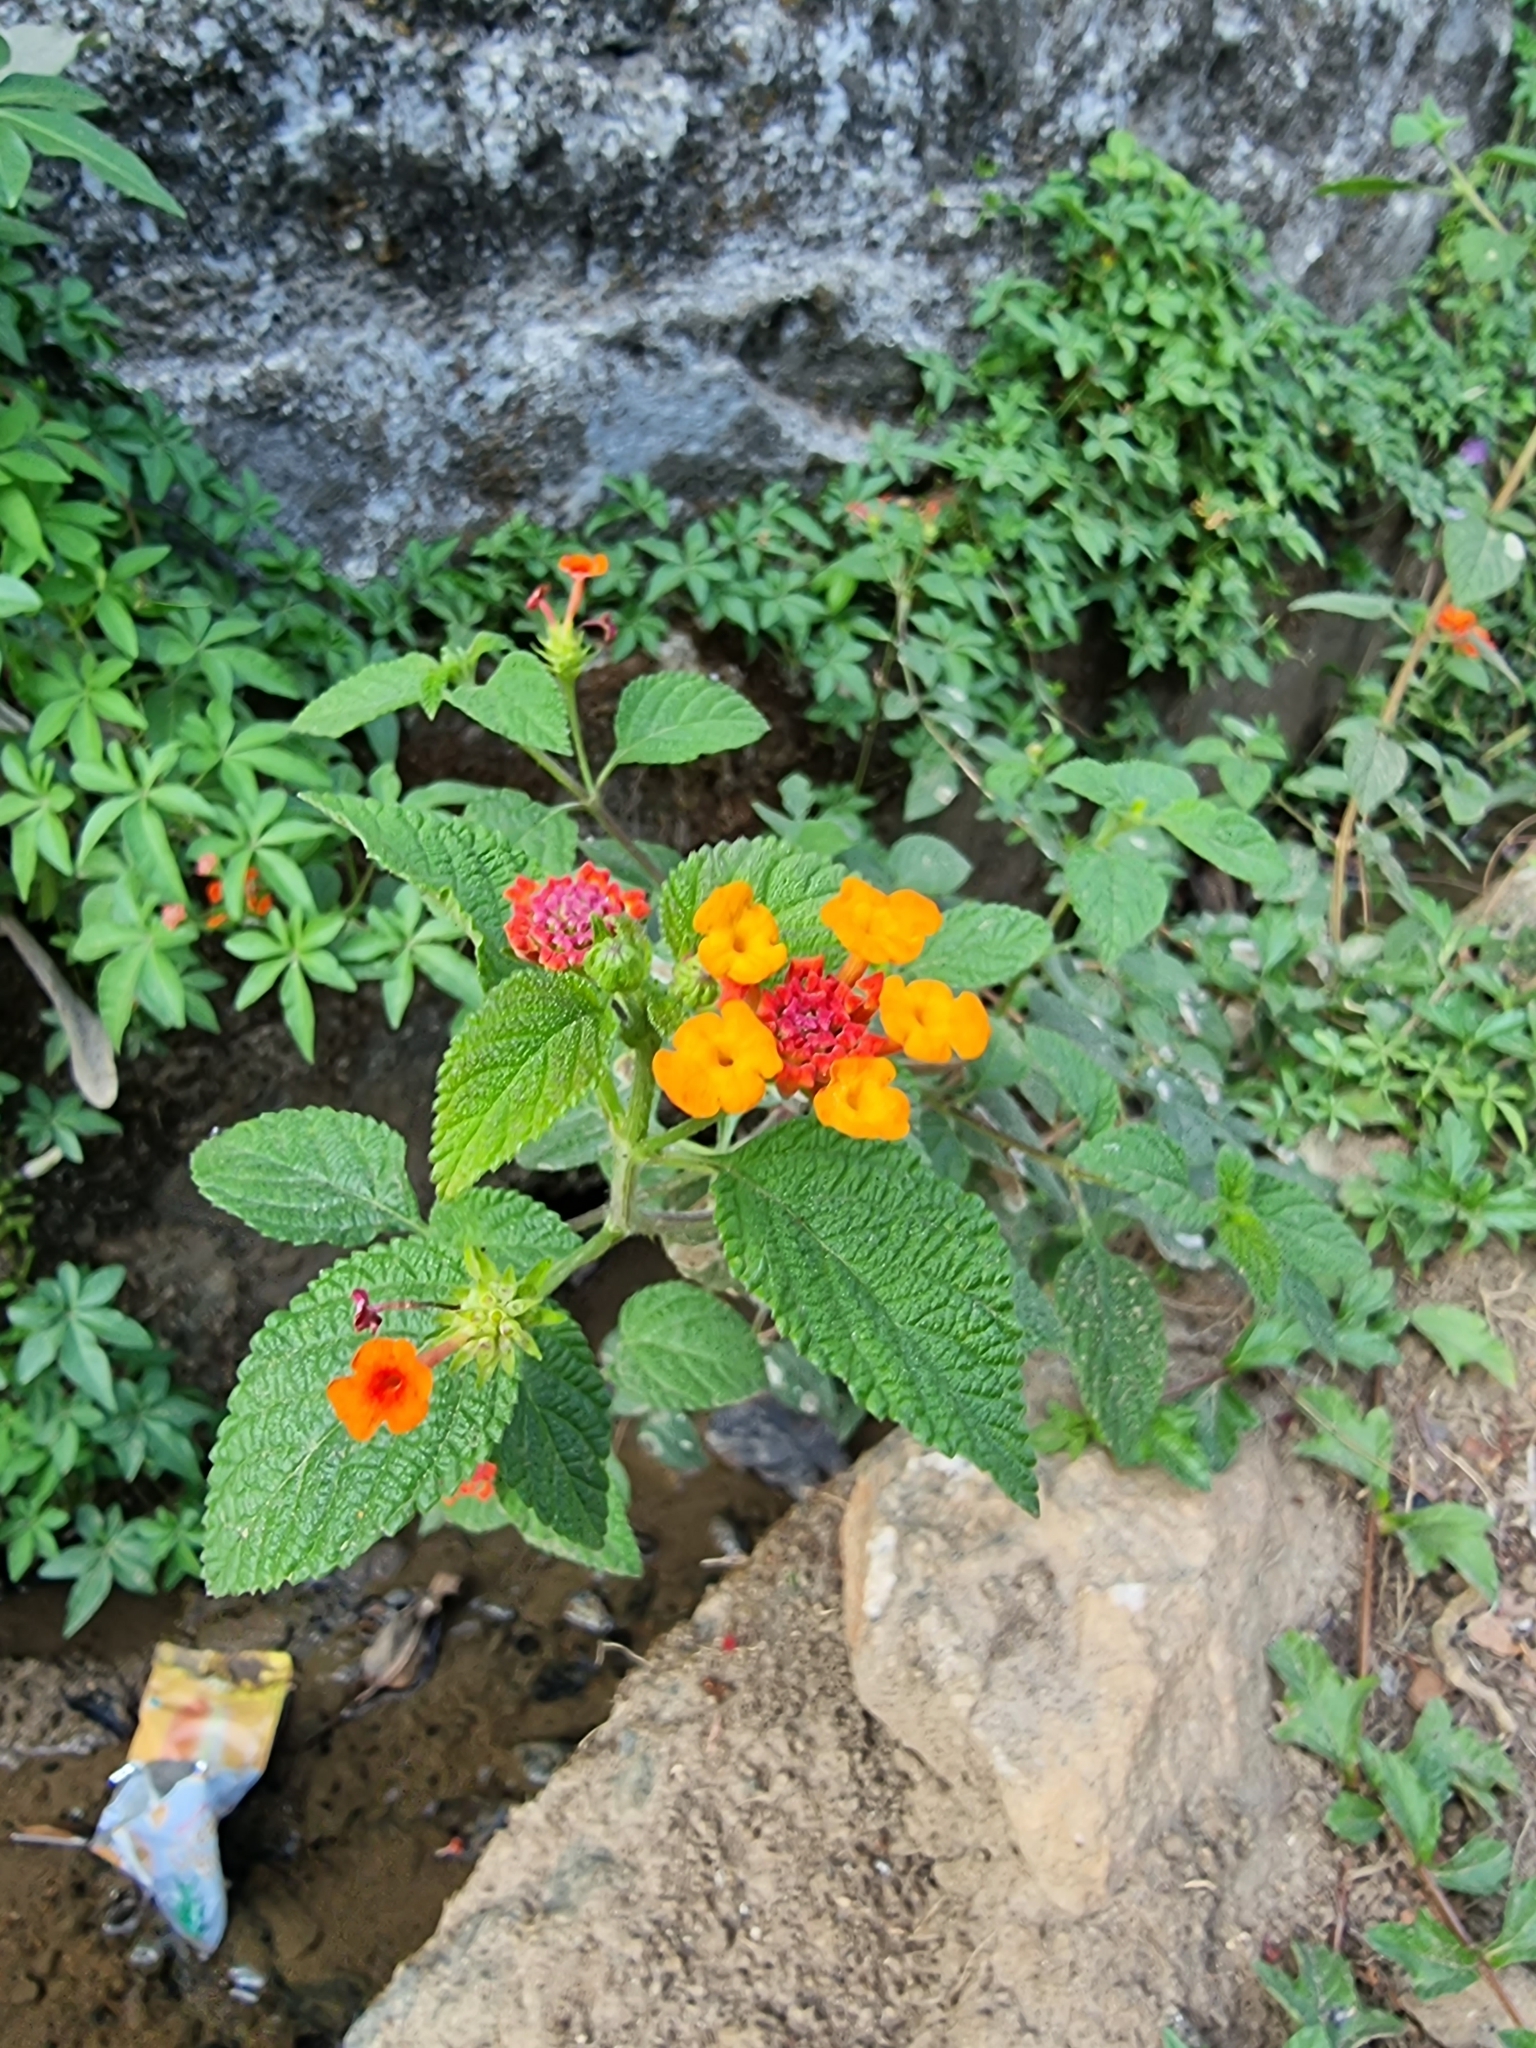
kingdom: Plantae
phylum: Tracheophyta
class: Magnoliopsida
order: Lamiales
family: Verbenaceae
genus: Lantana
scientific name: Lantana camara
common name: Lantana
